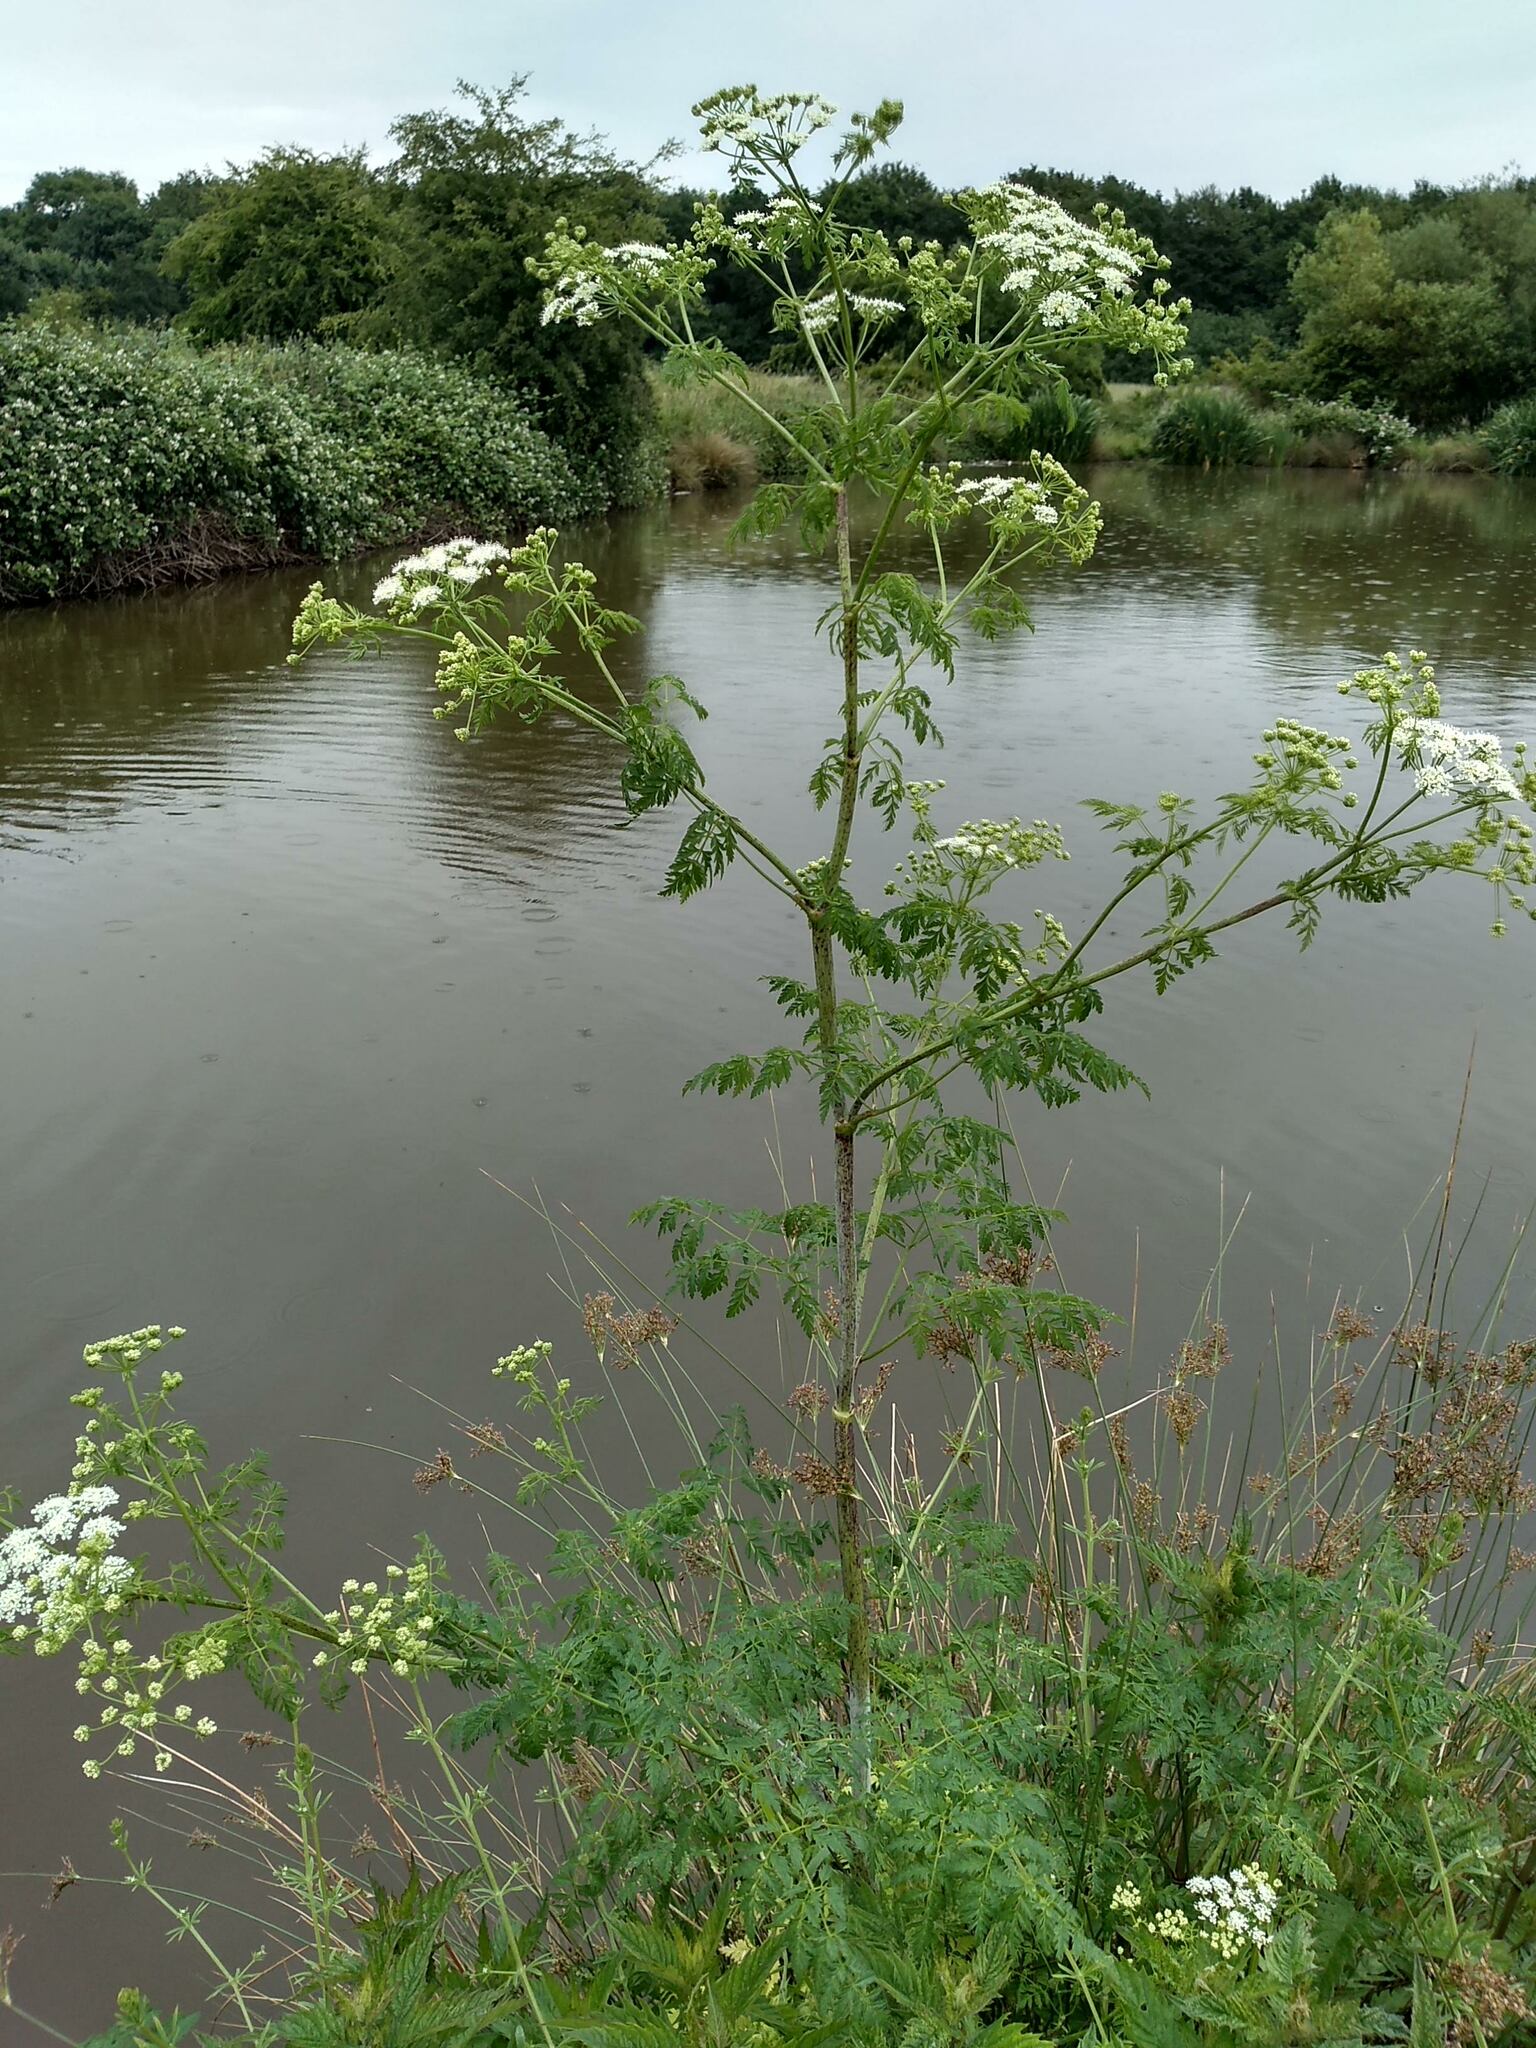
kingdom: Plantae
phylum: Tracheophyta
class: Magnoliopsida
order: Apiales
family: Apiaceae
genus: Conium
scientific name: Conium maculatum
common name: Hemlock
